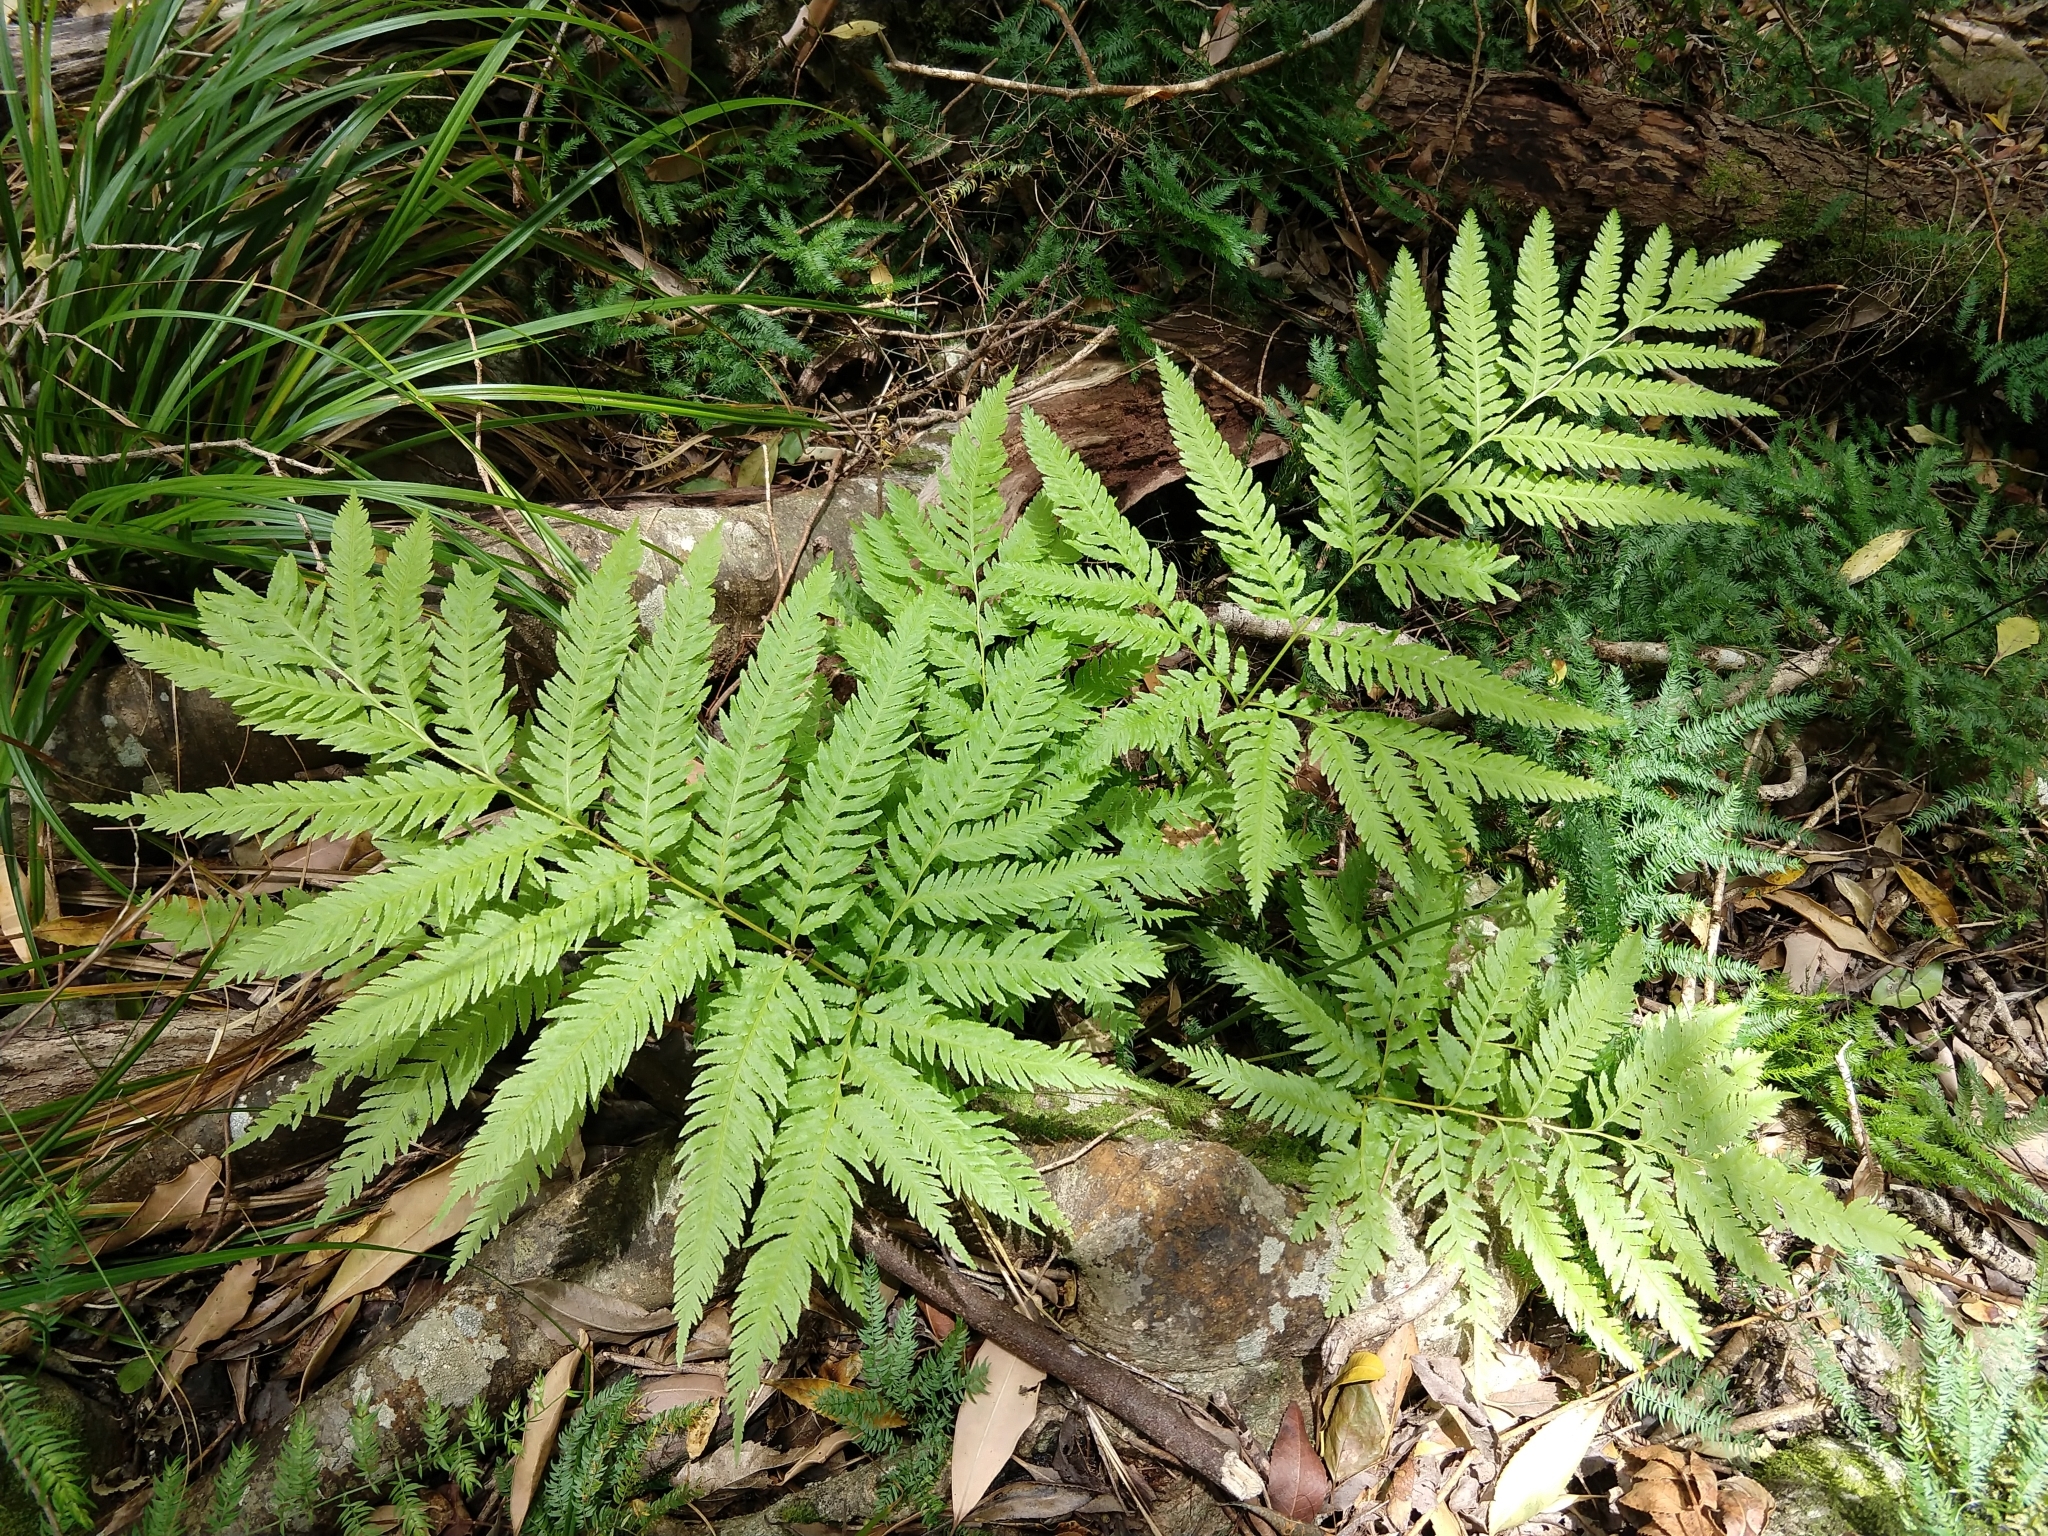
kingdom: Plantae
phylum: Tracheophyta
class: Polypodiopsida
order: Polypodiales
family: Pteridaceae
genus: Pteris
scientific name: Pteris dentata
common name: Toothed brake
